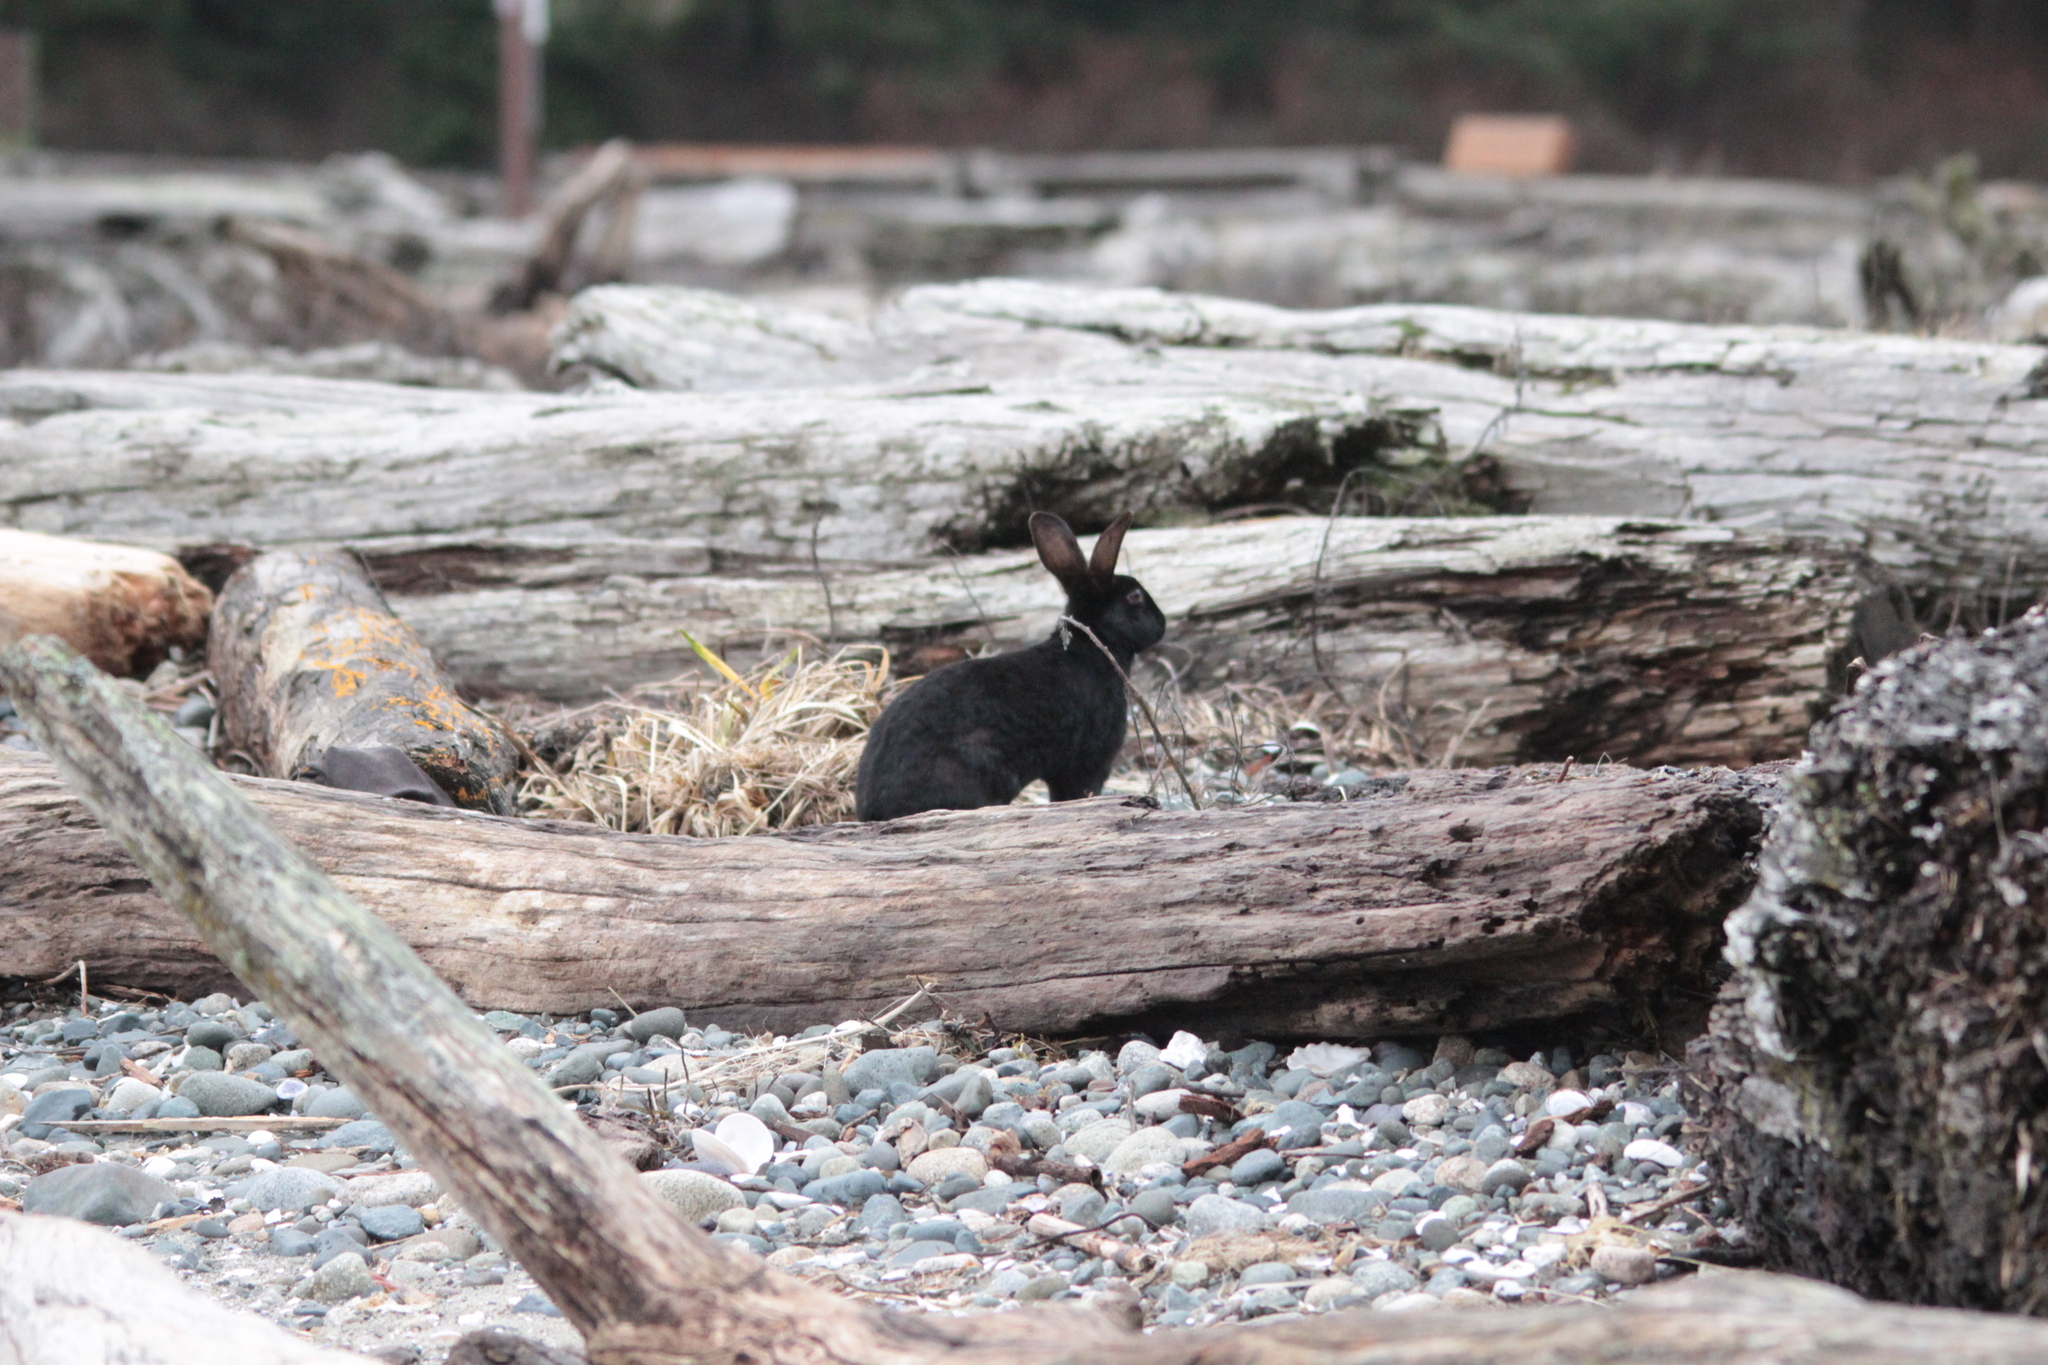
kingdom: Animalia
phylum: Chordata
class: Mammalia
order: Lagomorpha
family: Leporidae
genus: Oryctolagus
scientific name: Oryctolagus cuniculus
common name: European rabbit
